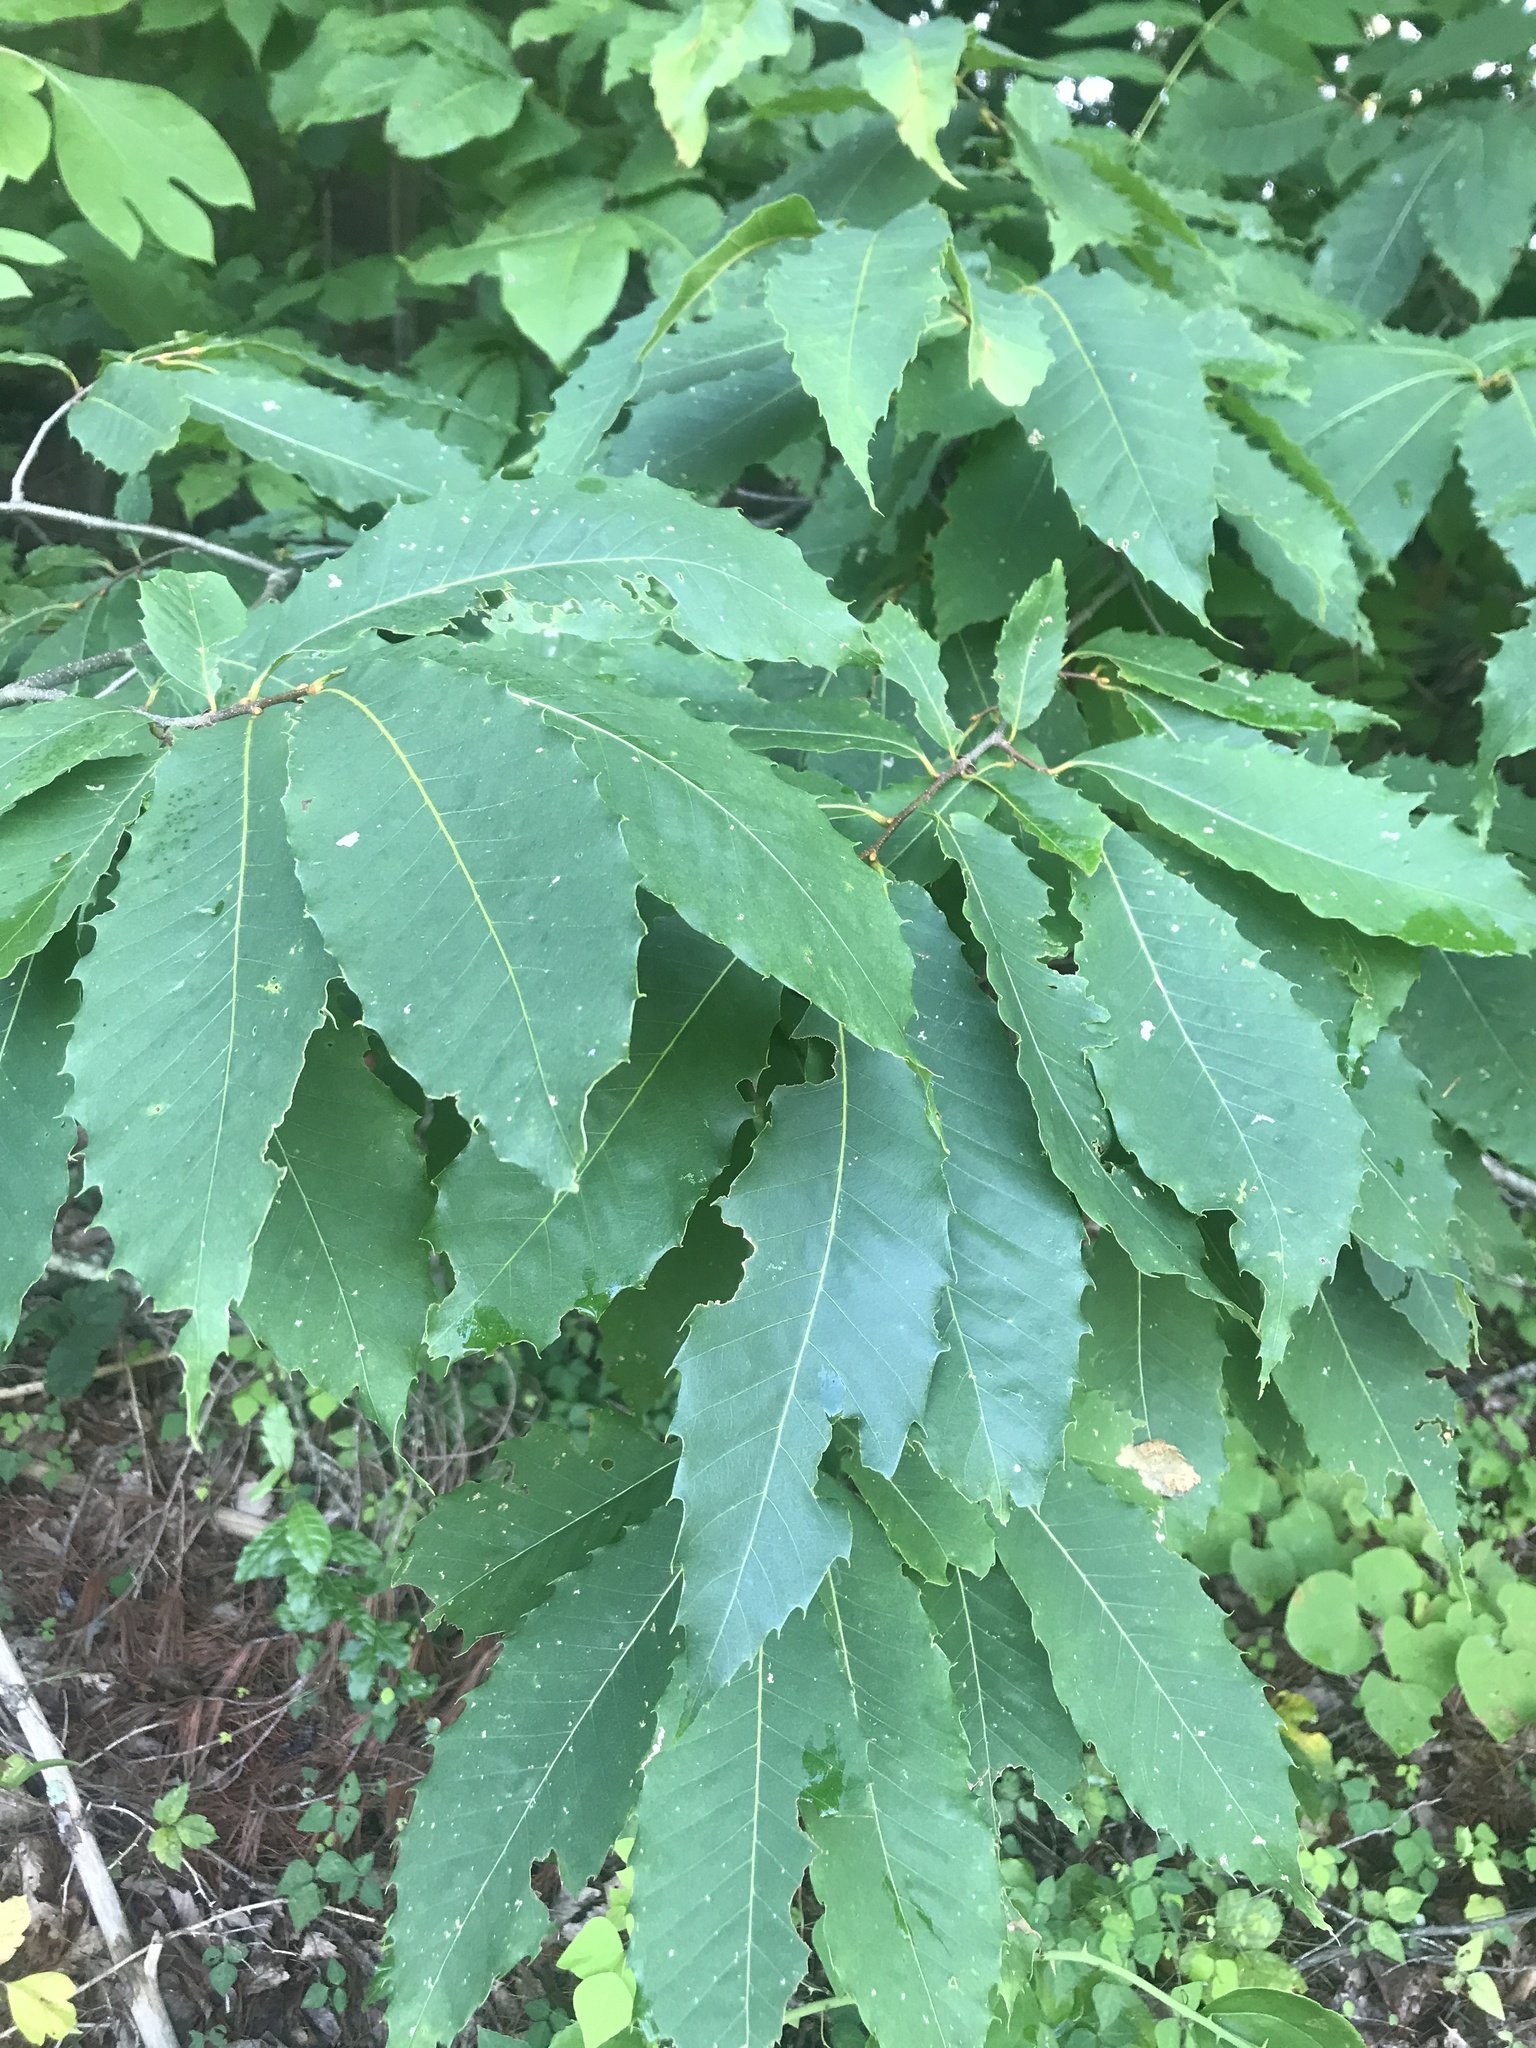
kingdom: Plantae
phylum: Tracheophyta
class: Magnoliopsida
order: Fagales
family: Fagaceae
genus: Castanea
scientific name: Castanea dentata
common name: American chestnut
